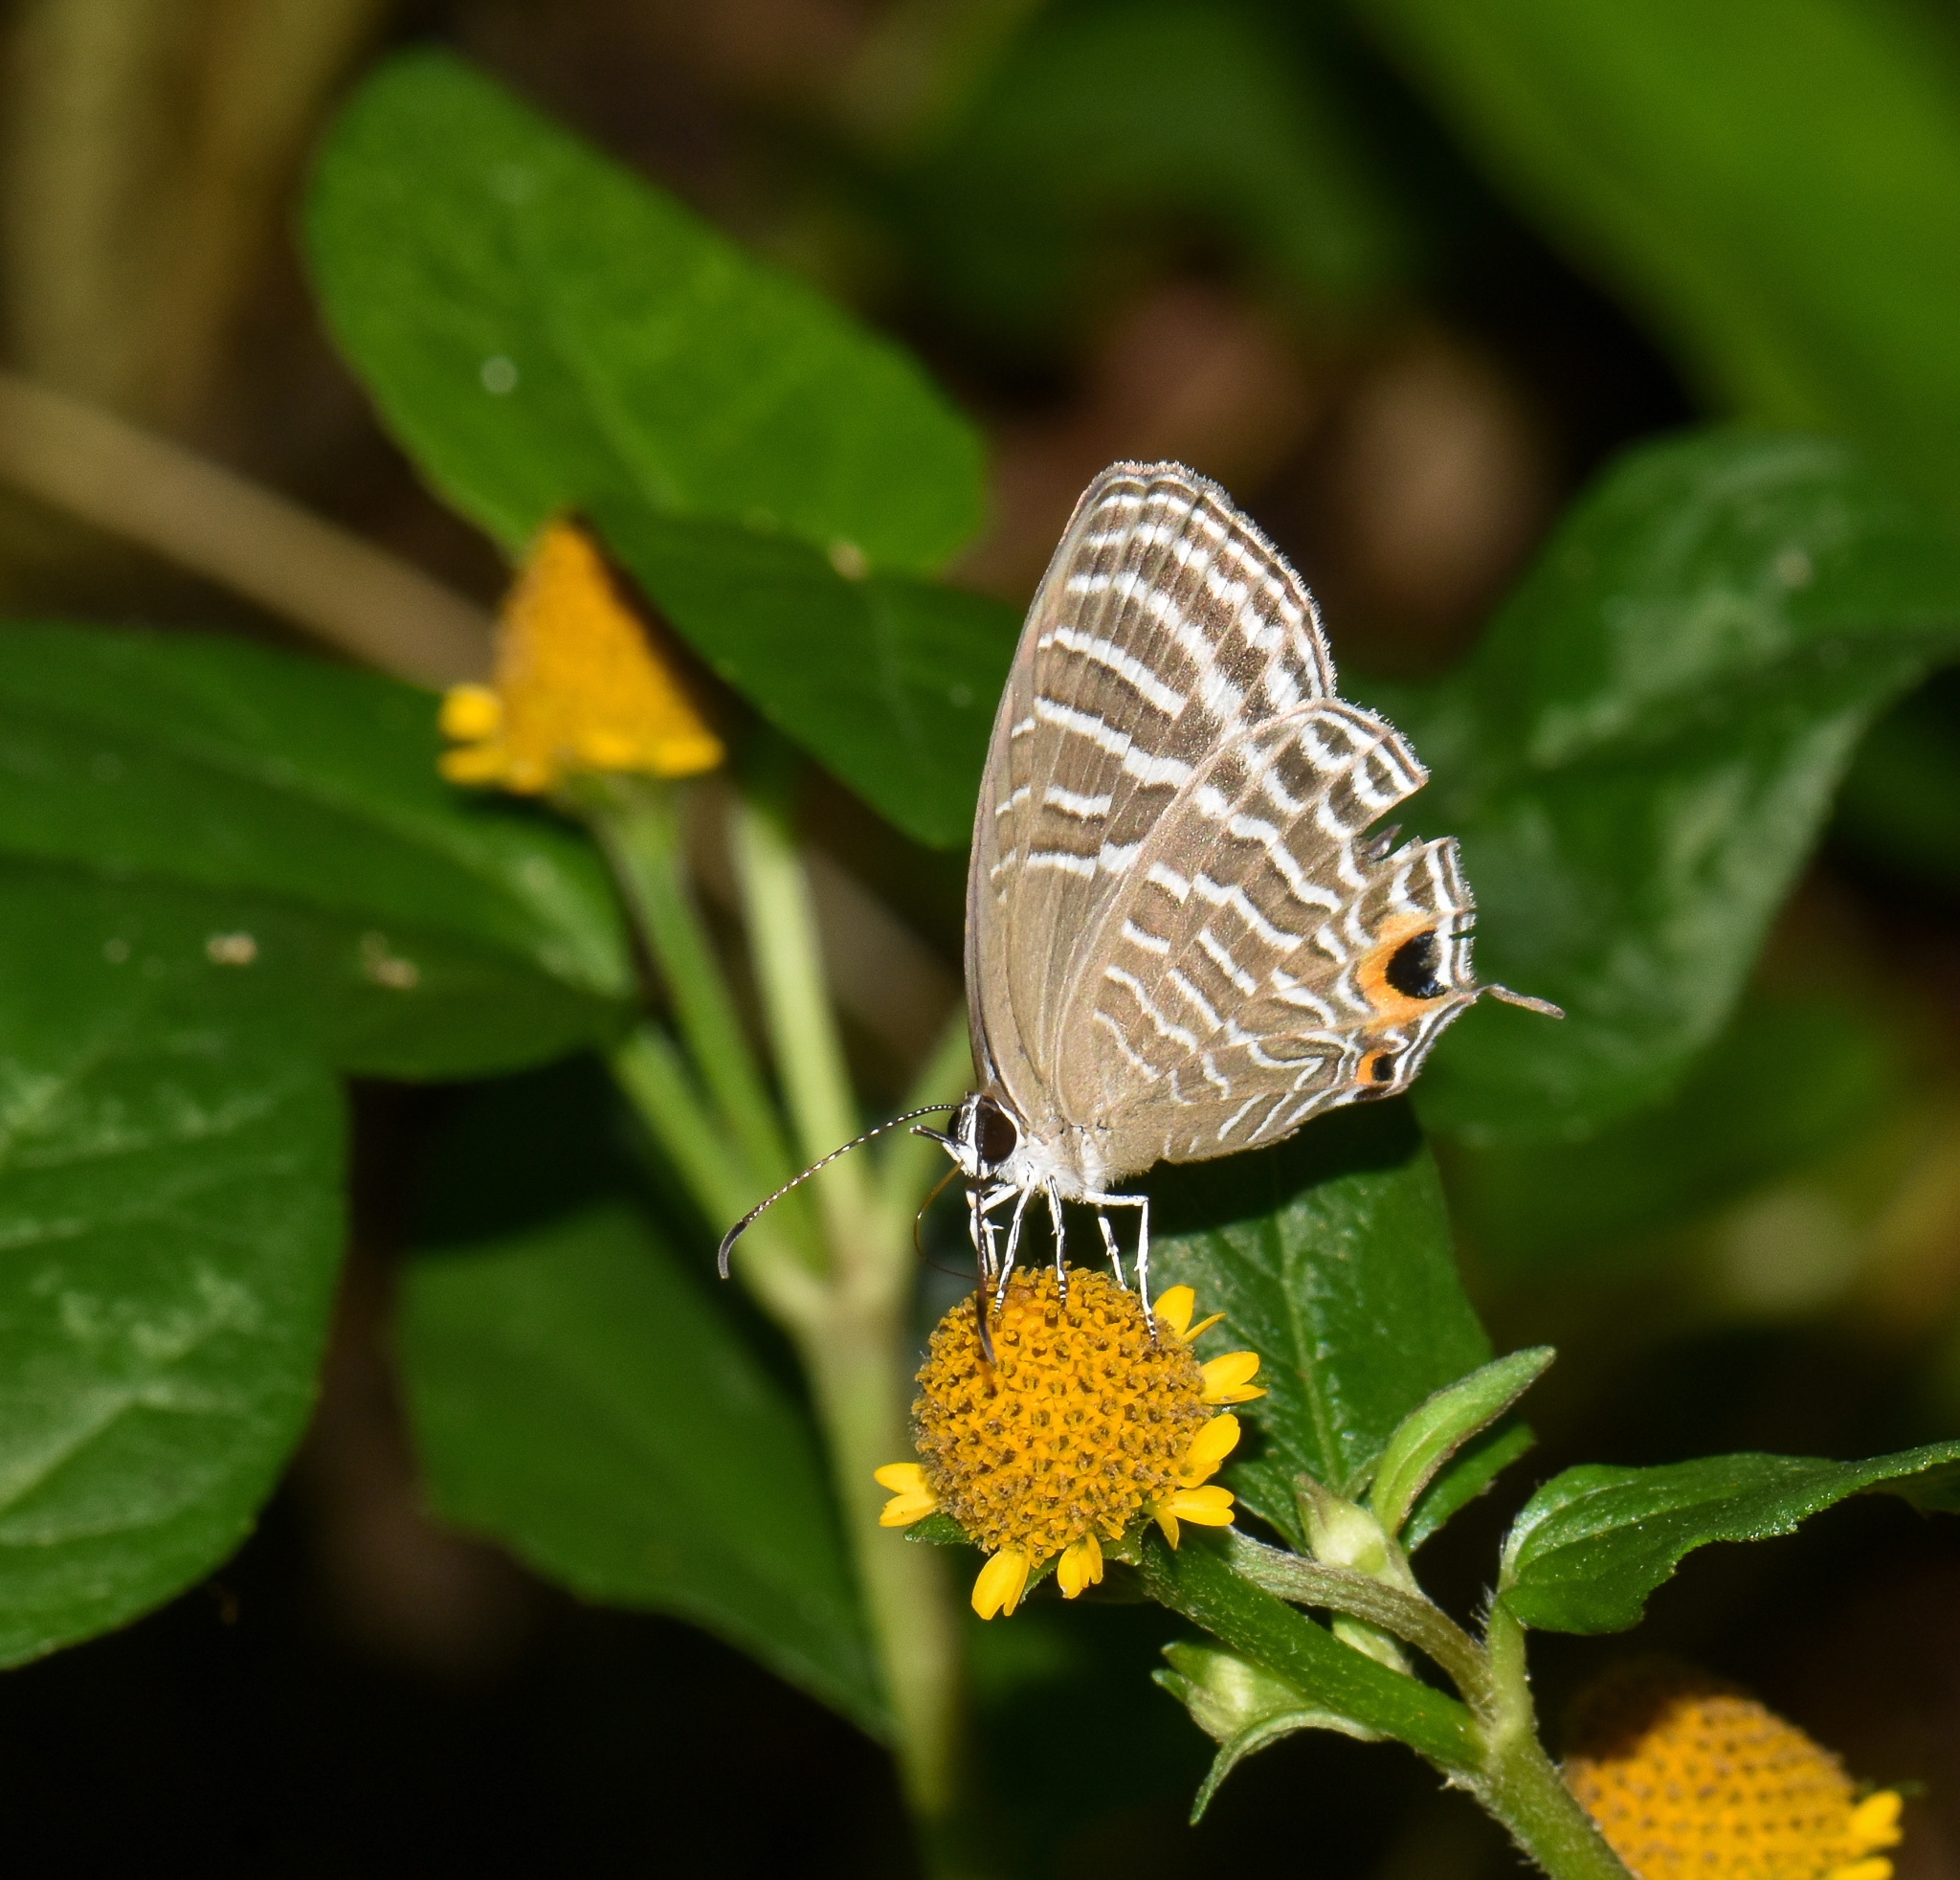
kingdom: Animalia
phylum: Arthropoda
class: Insecta
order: Lepidoptera
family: Lycaenidae
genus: Jamides
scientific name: Jamides celeno
